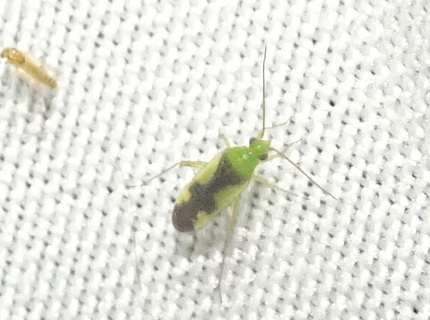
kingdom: Animalia
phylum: Arthropoda
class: Insecta
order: Hemiptera
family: Miridae
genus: Reuteroscopus
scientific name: Reuteroscopus ornatus
